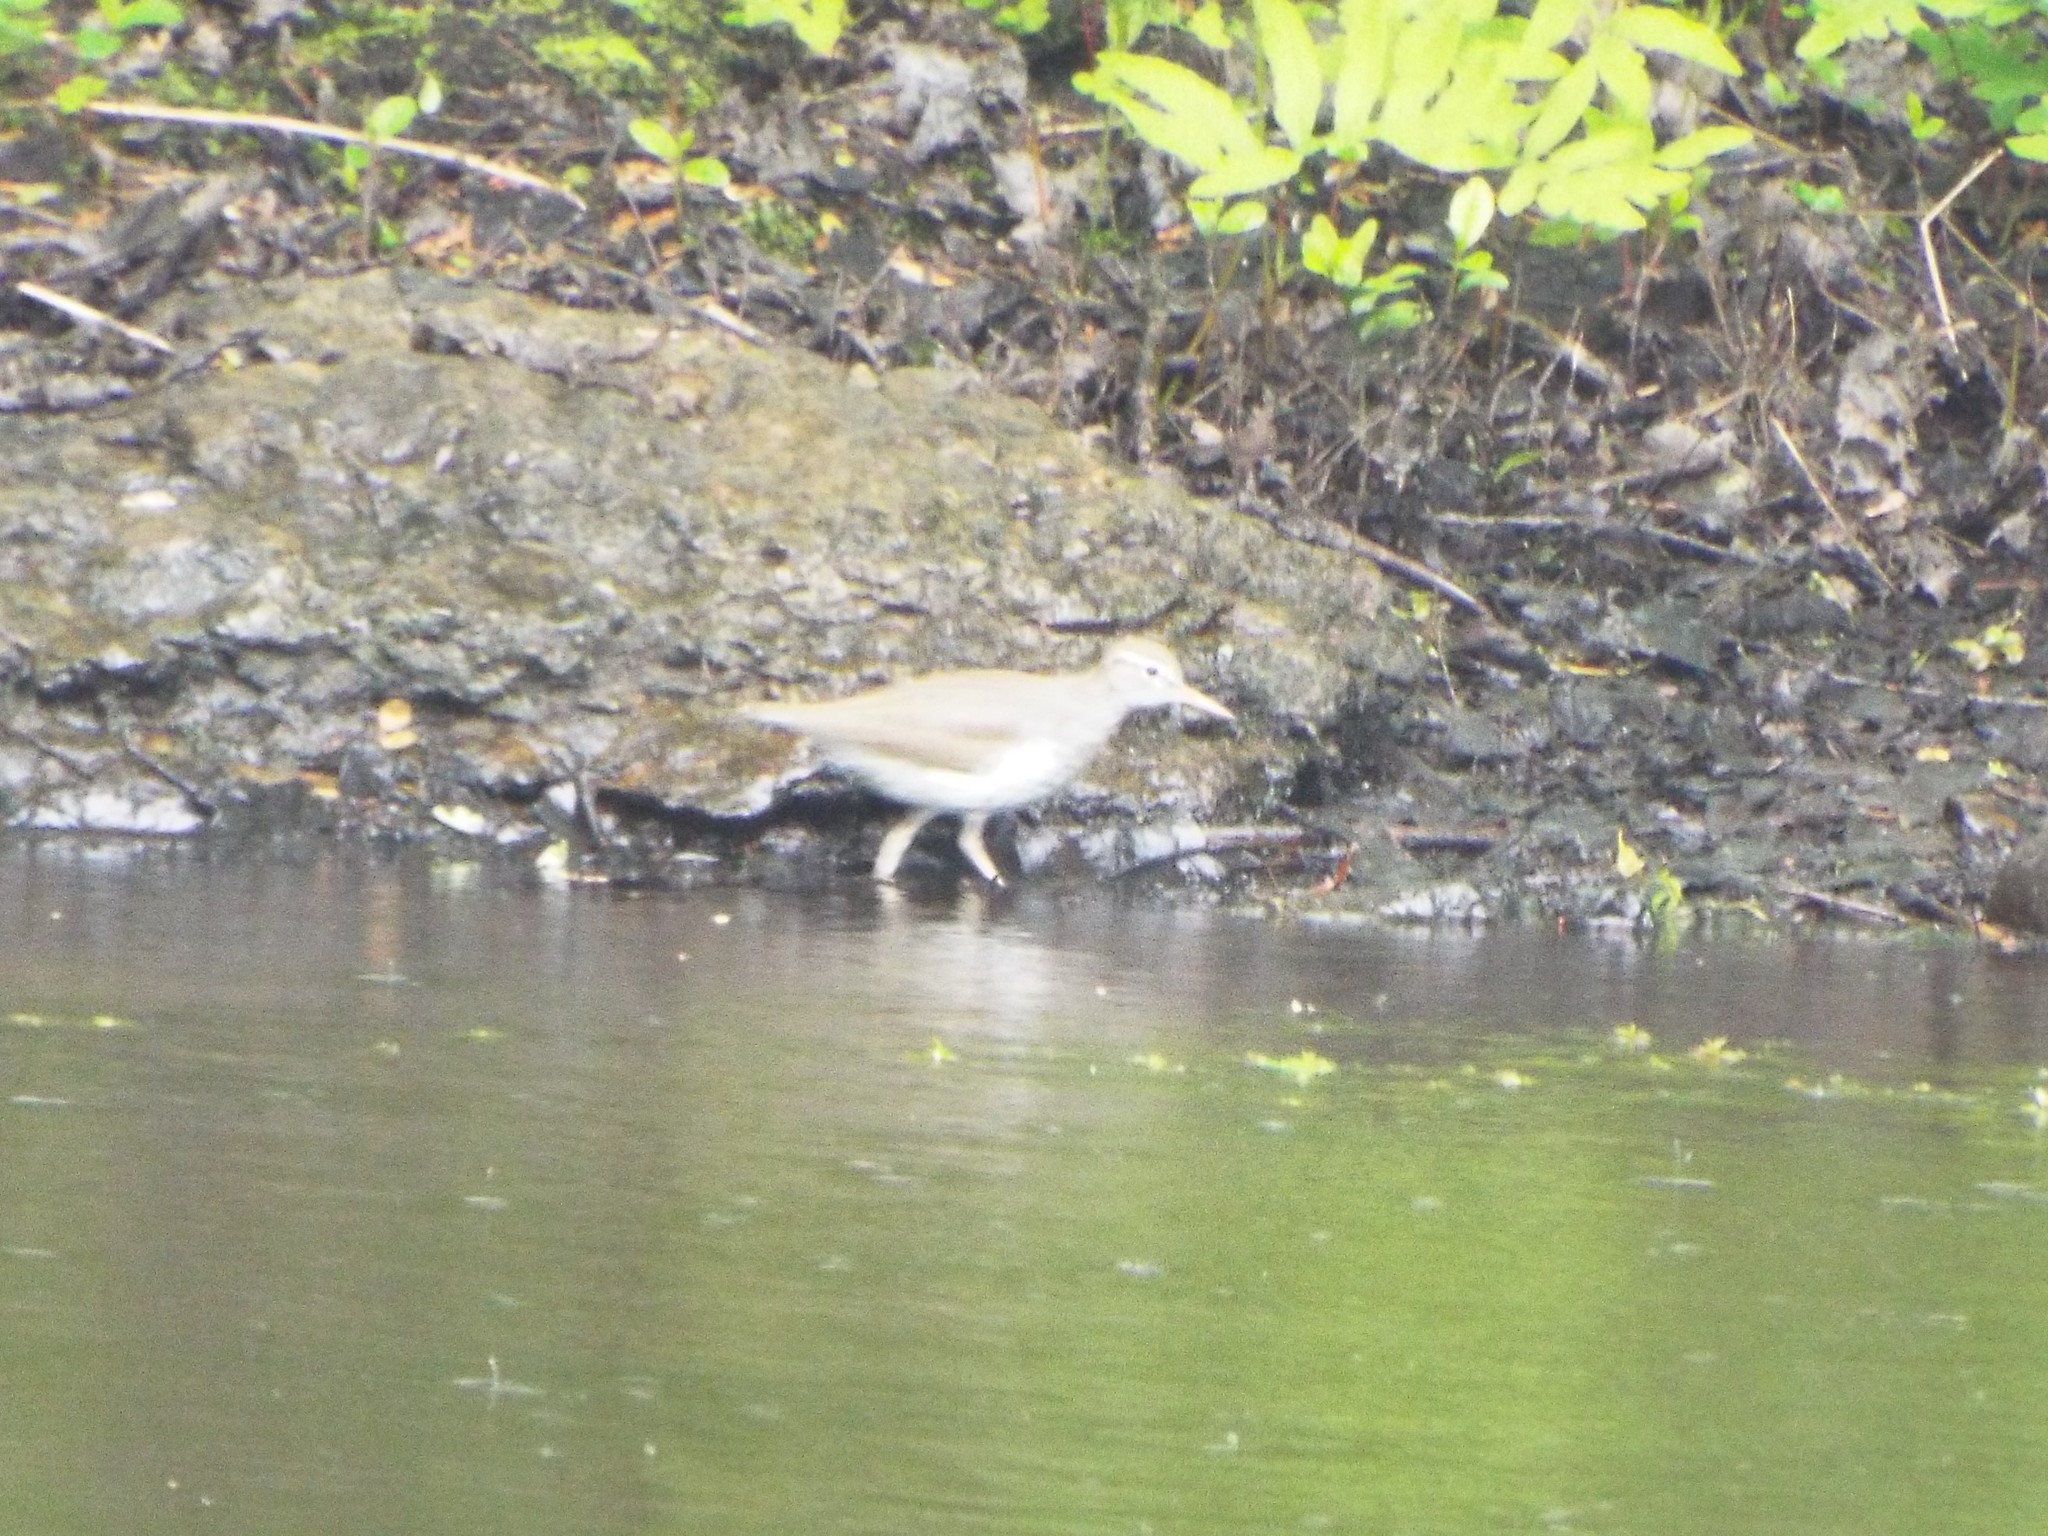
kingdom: Animalia
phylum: Chordata
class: Aves
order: Charadriiformes
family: Scolopacidae
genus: Actitis
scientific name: Actitis macularius
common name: Spotted sandpiper
